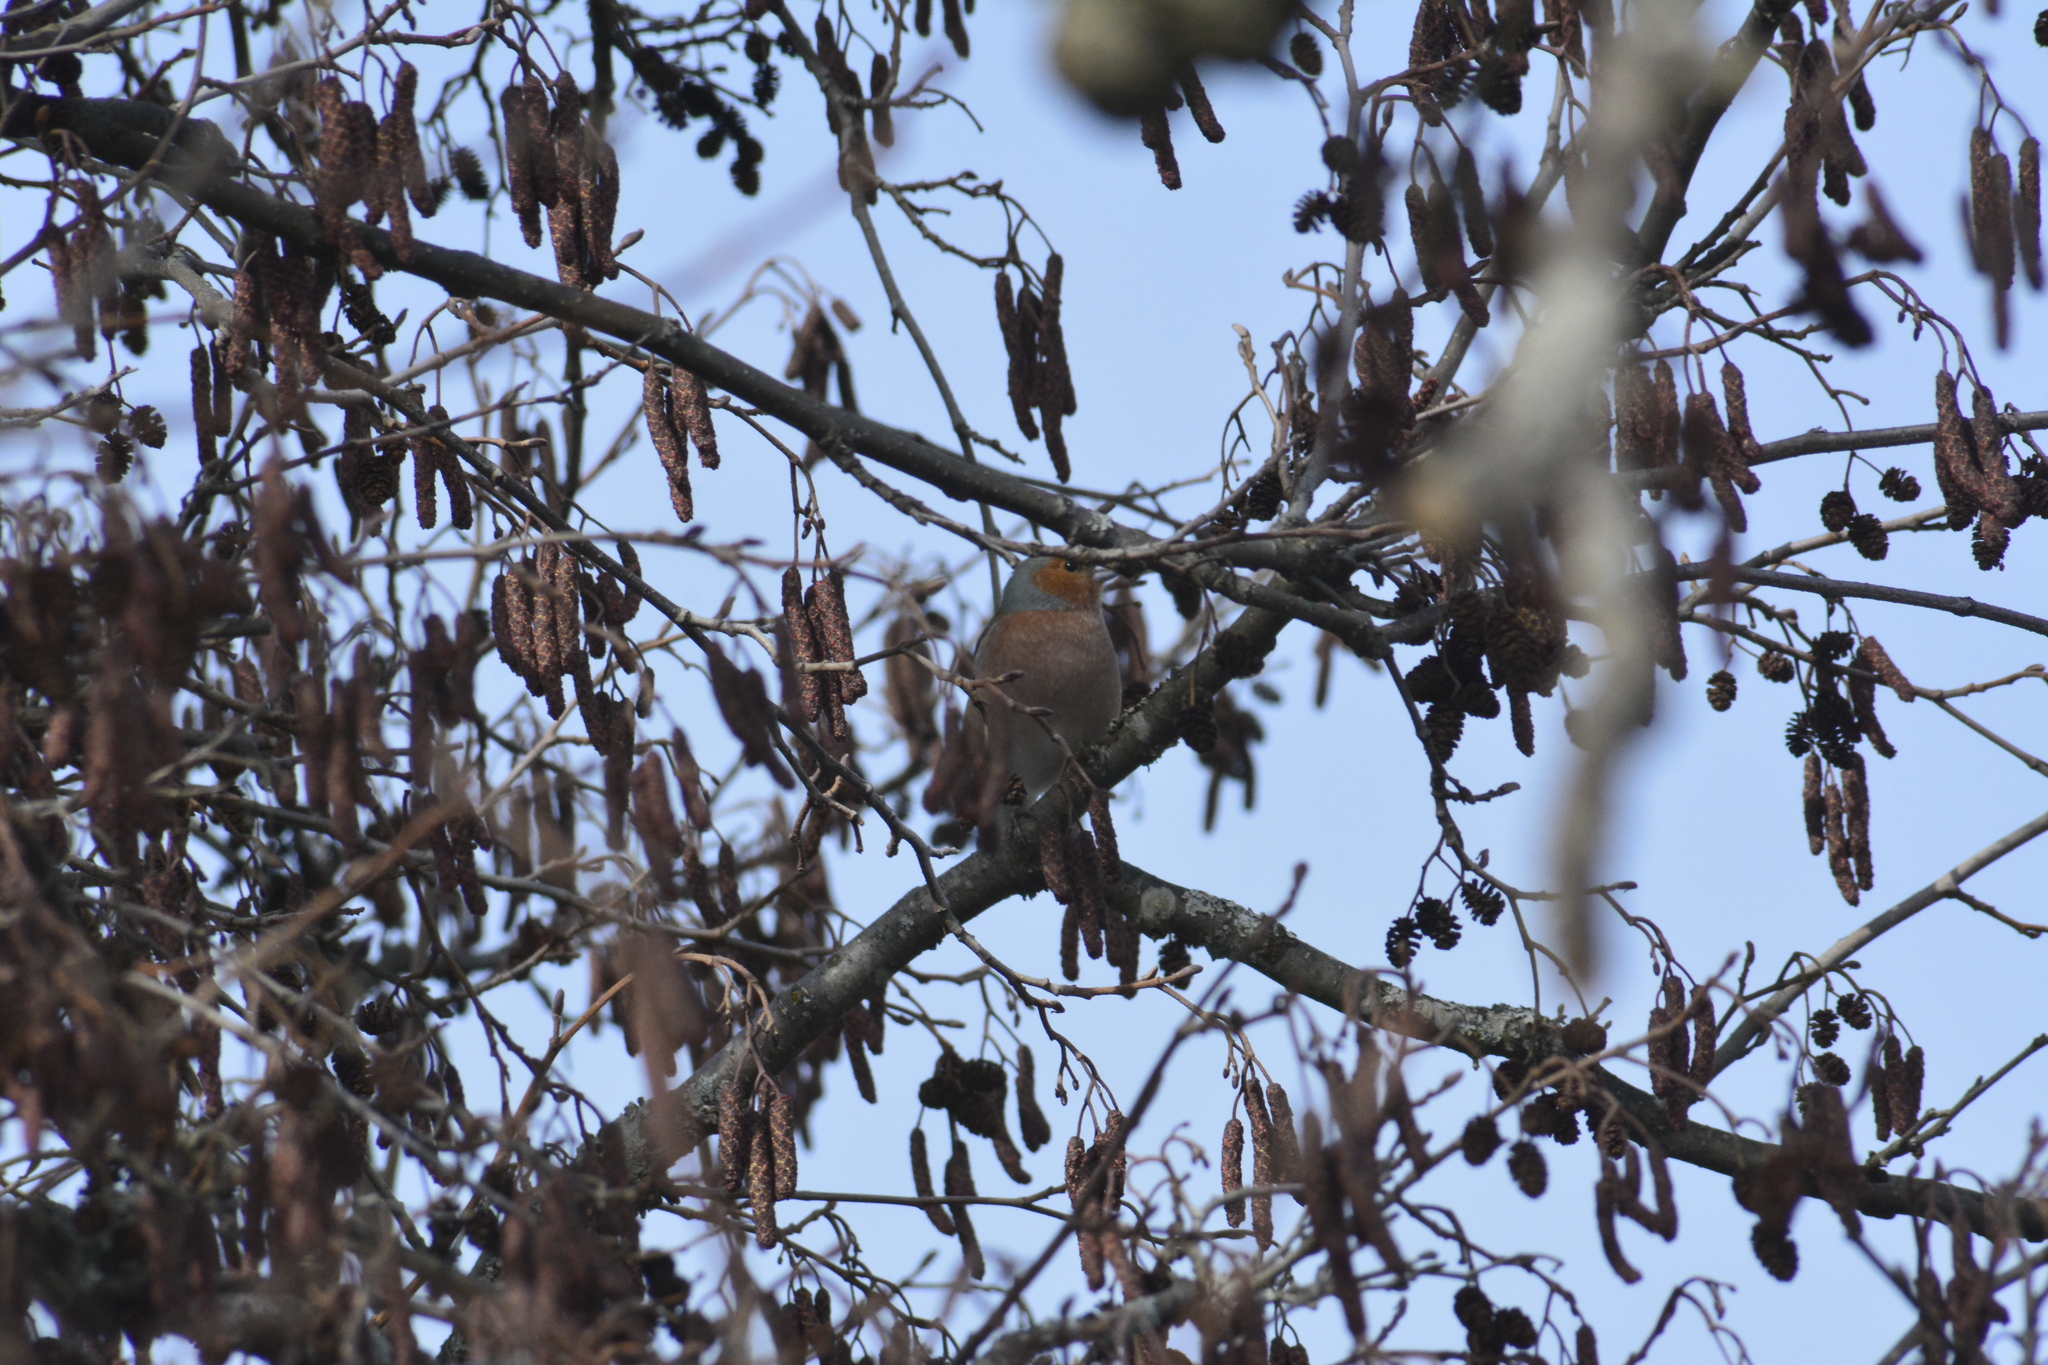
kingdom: Animalia
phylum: Chordata
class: Aves
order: Passeriformes
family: Fringillidae
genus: Fringilla
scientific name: Fringilla coelebs
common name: Common chaffinch
